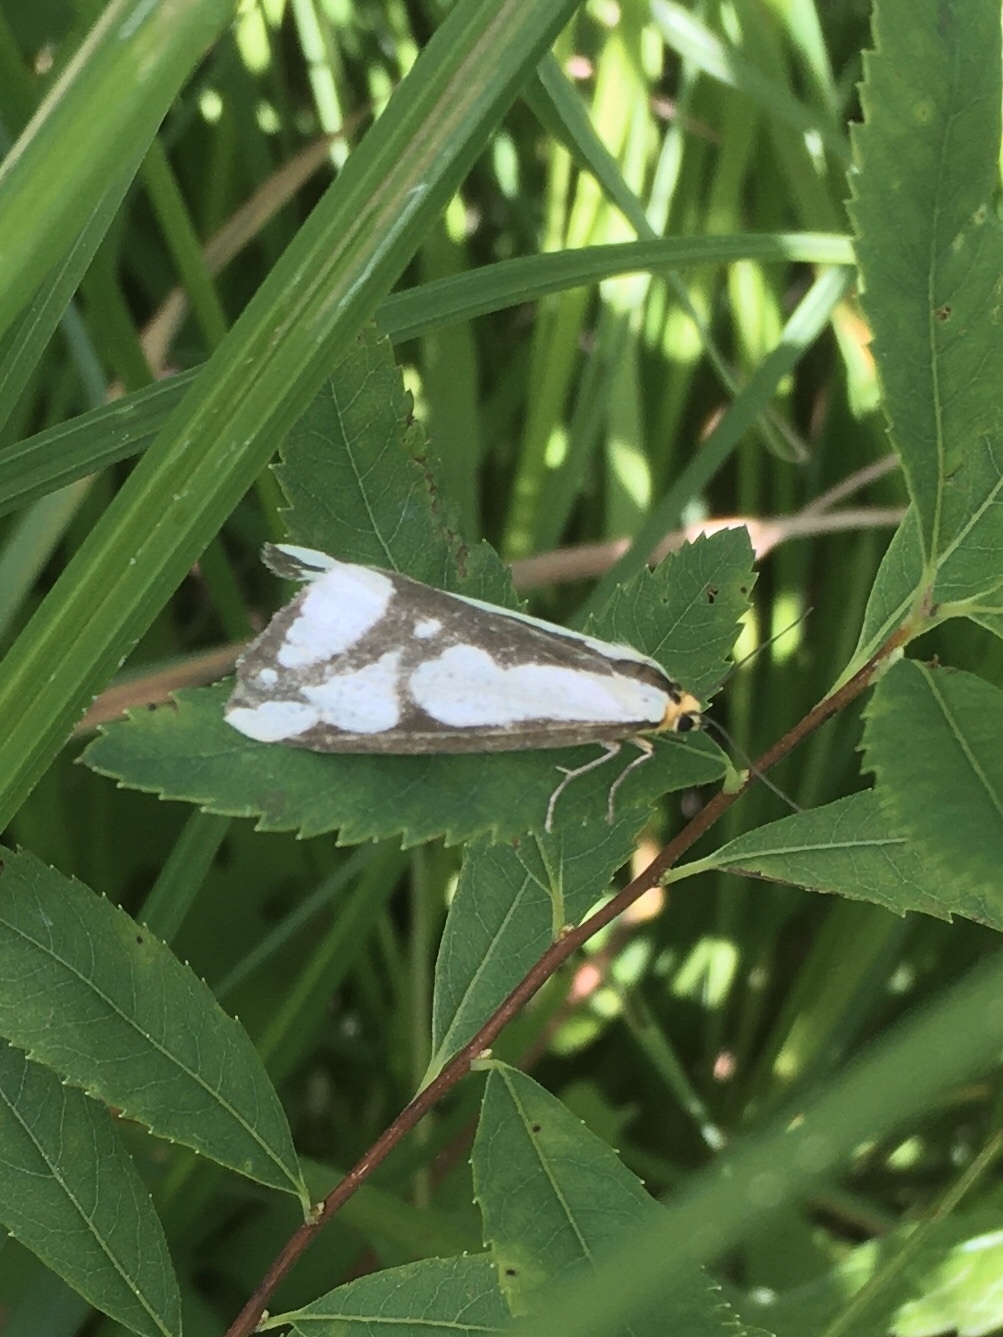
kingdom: Animalia
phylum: Arthropoda
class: Insecta
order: Lepidoptera
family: Erebidae
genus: Haploa
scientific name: Haploa lecontei
